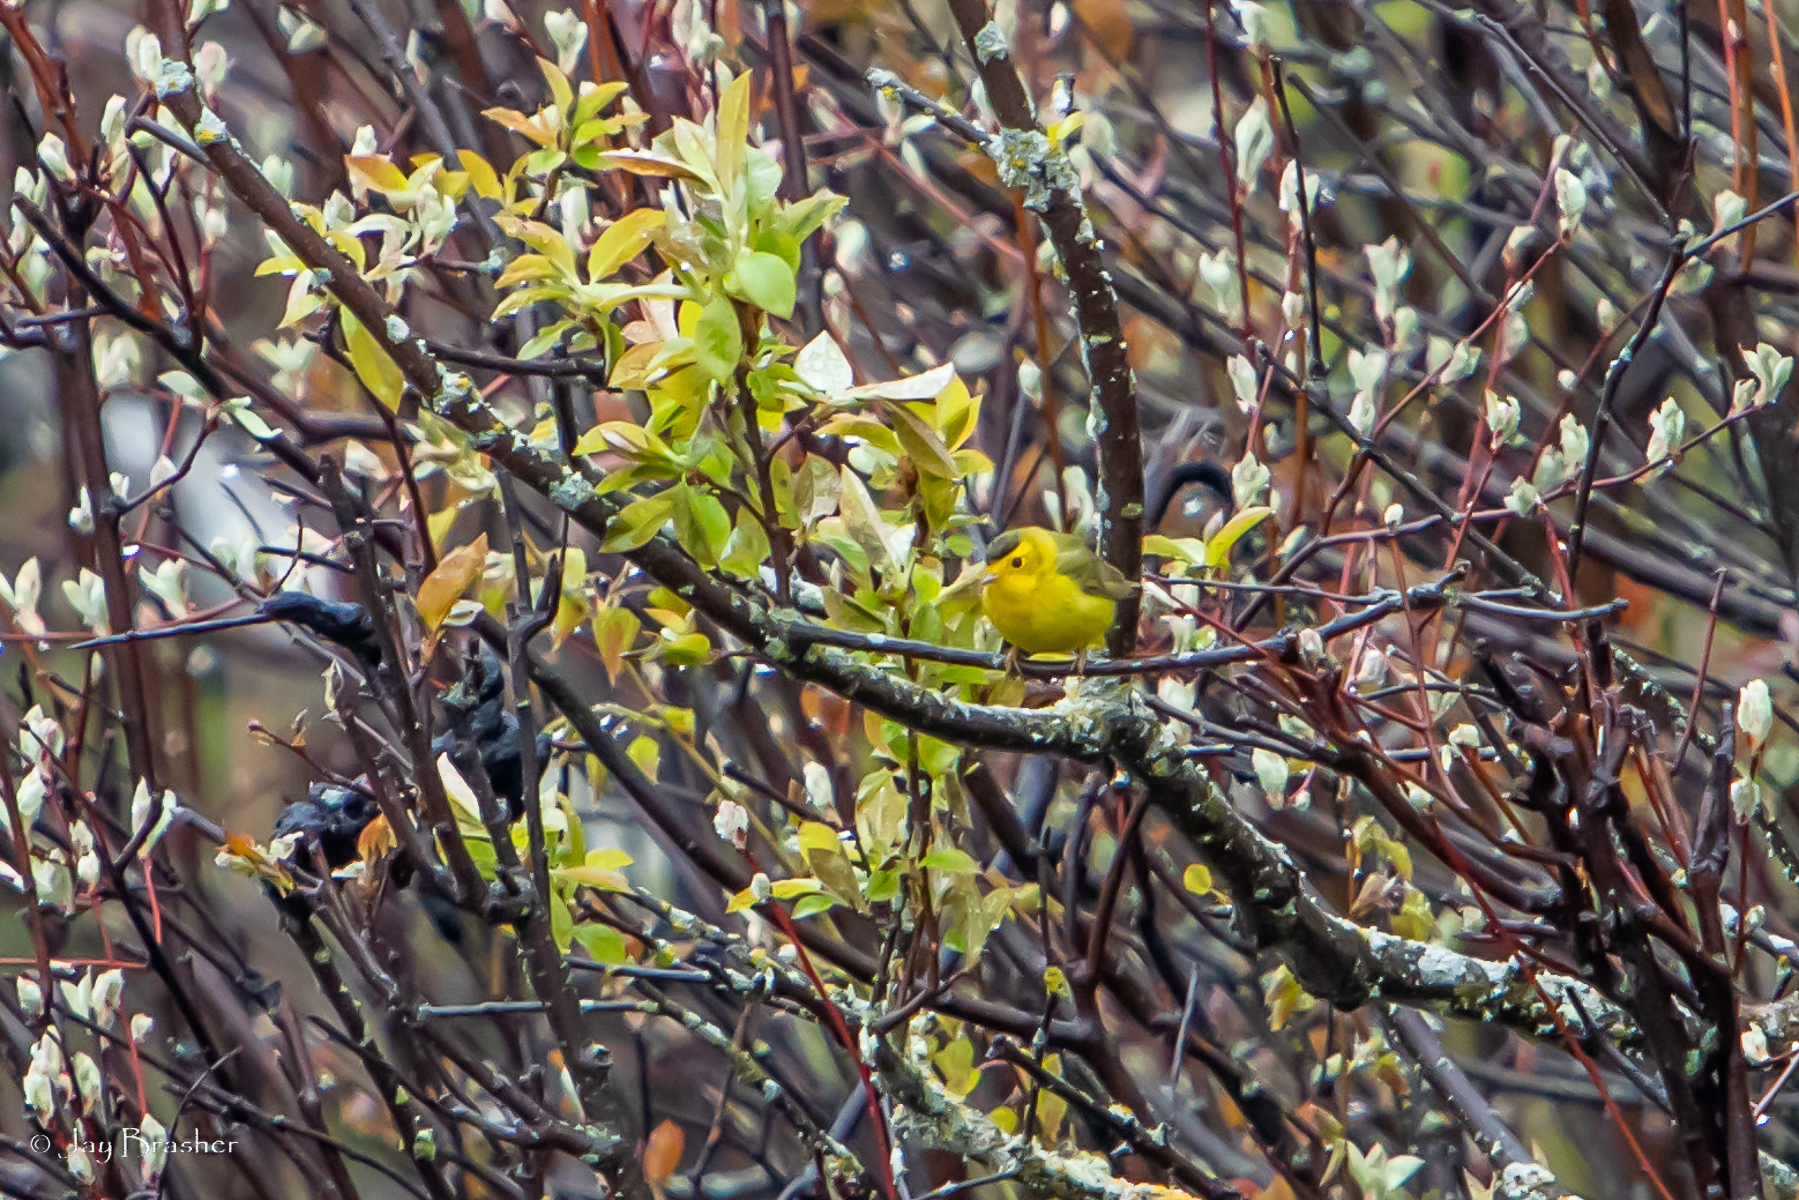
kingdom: Animalia
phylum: Chordata
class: Aves
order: Passeriformes
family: Parulidae
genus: Cardellina
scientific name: Cardellina pusilla
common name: Wilson's warbler
